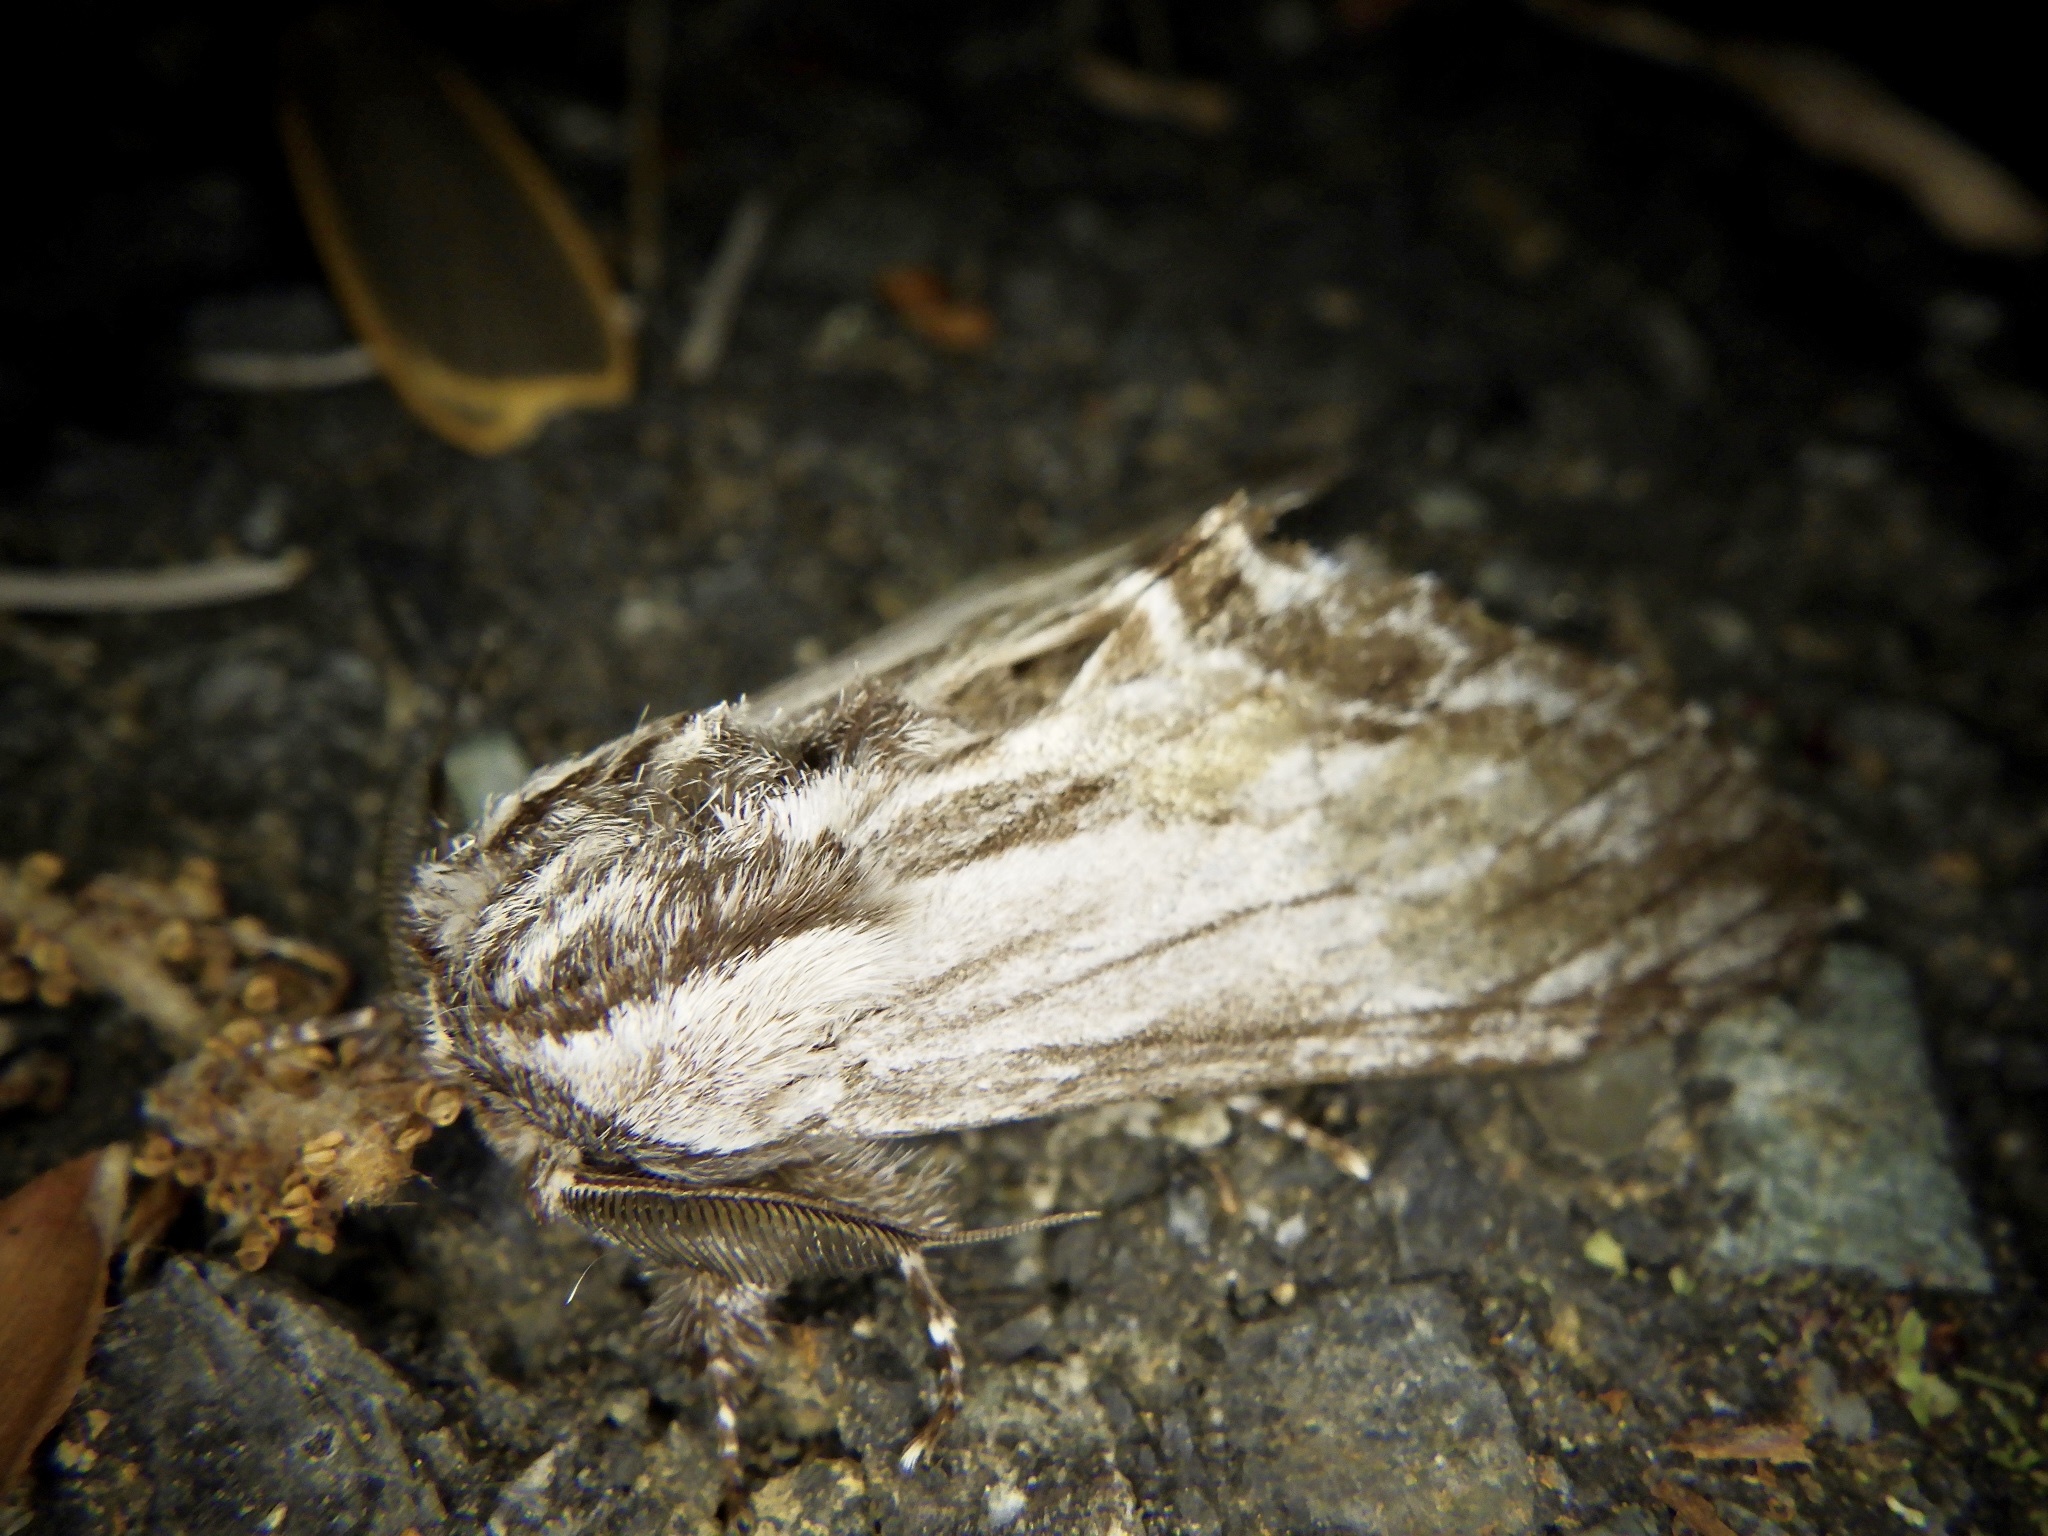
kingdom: Animalia
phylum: Arthropoda
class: Insecta
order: Lepidoptera
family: Notodontidae
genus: Harpyia
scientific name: Harpyia umbrosa
